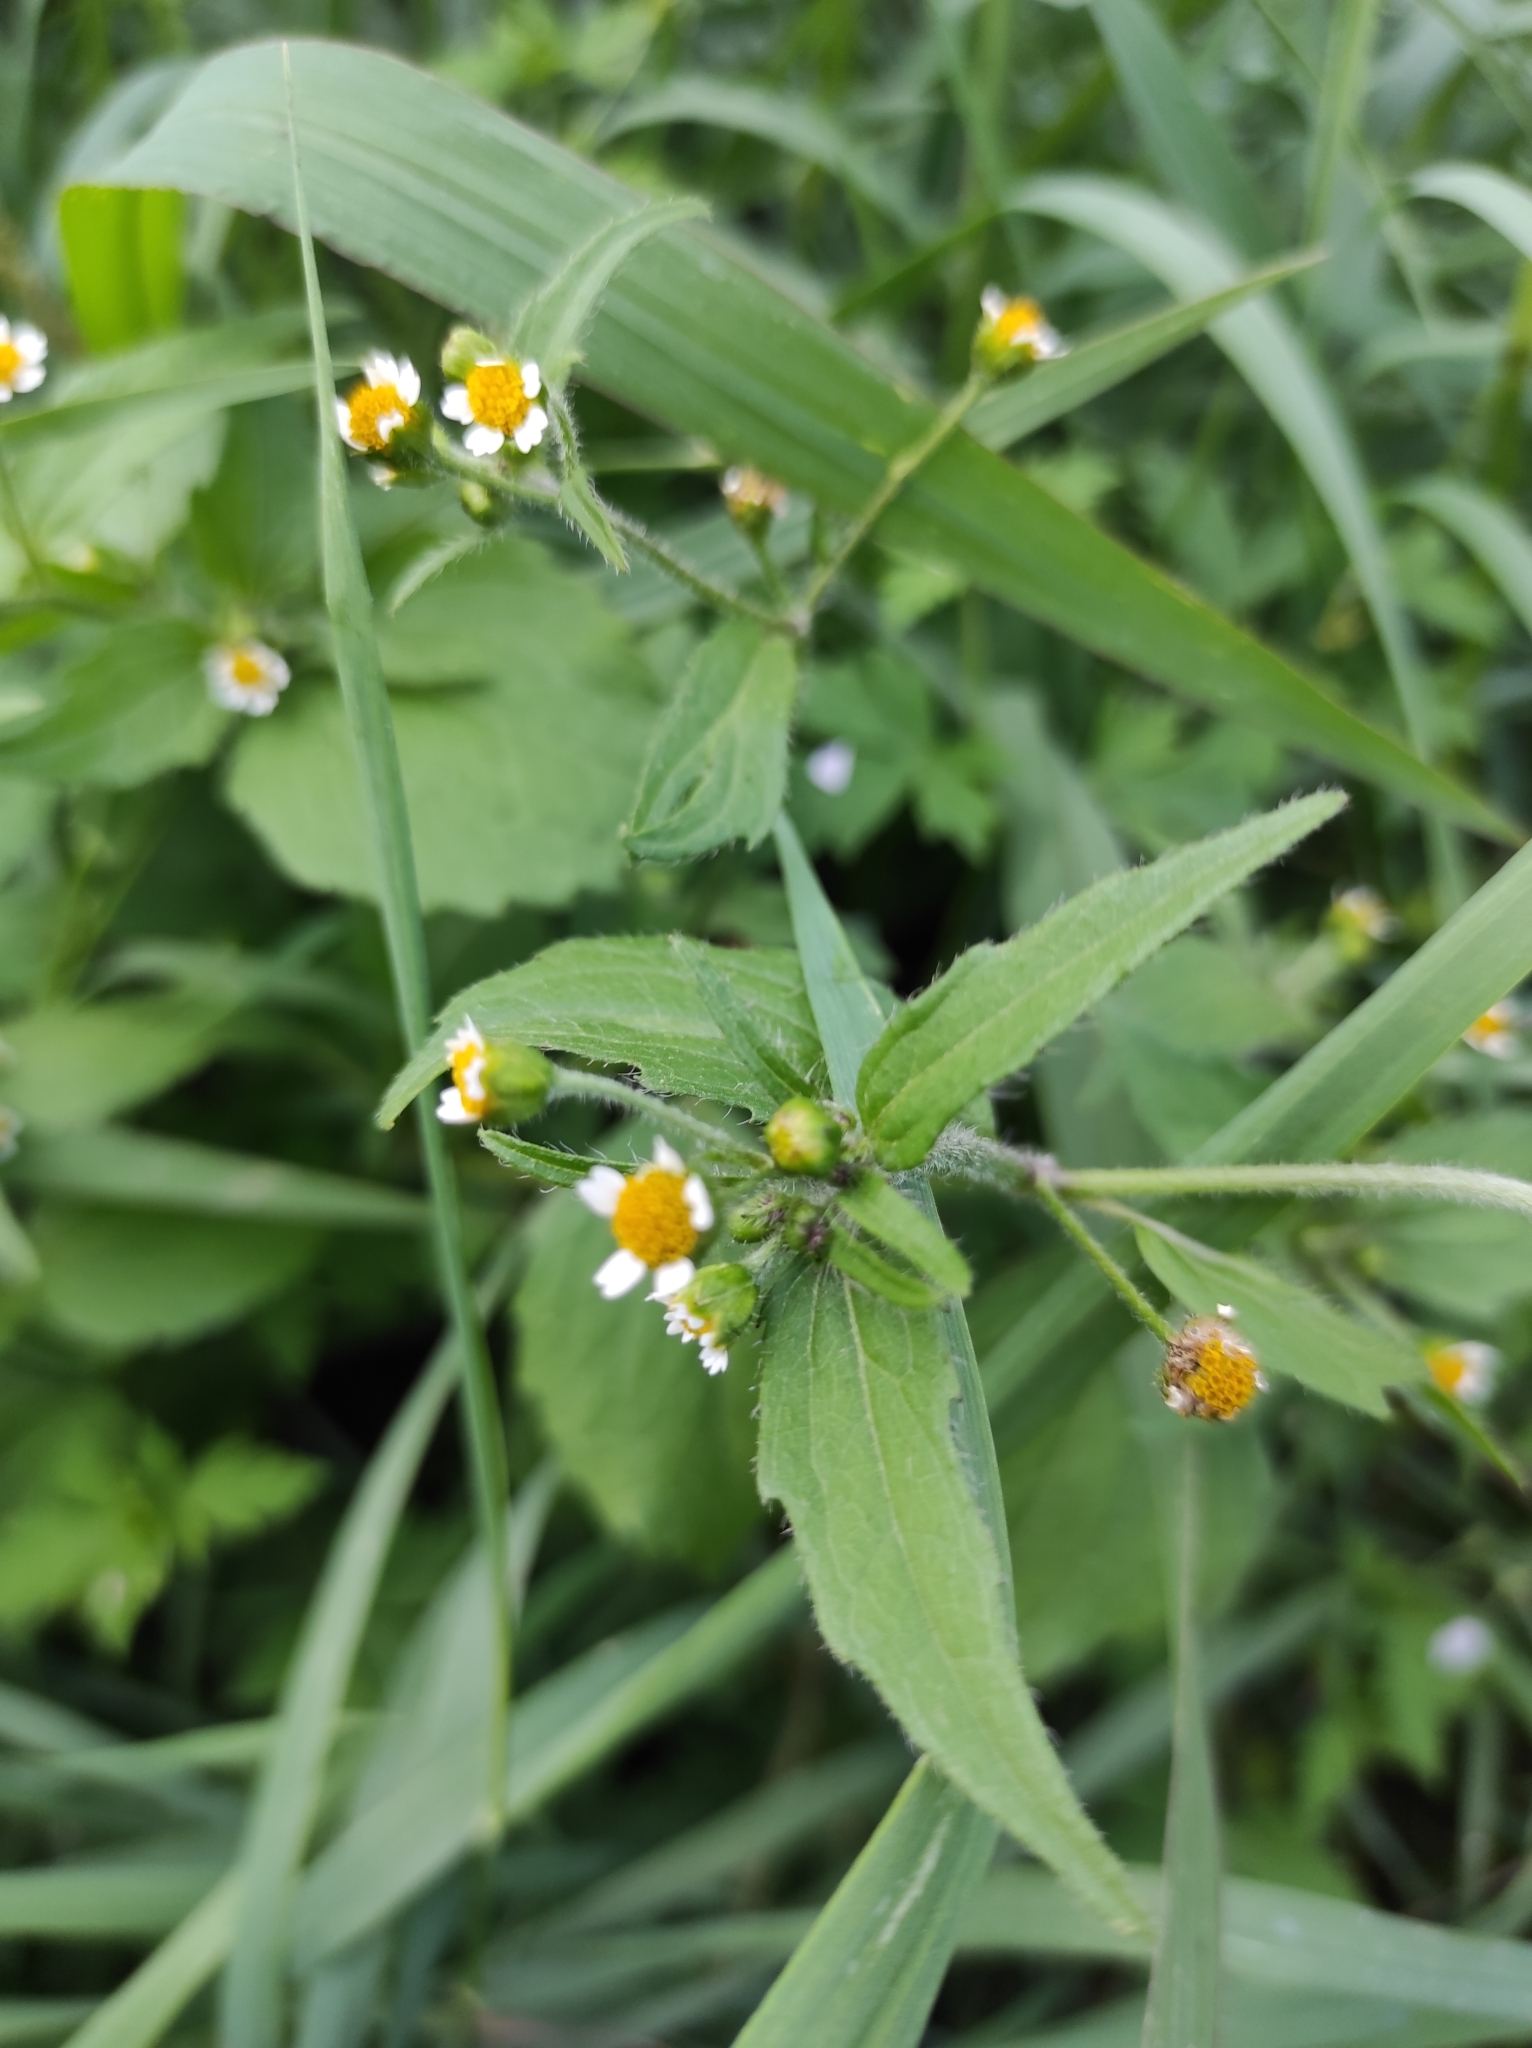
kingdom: Plantae
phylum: Tracheophyta
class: Magnoliopsida
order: Asterales
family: Asteraceae
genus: Galinsoga
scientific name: Galinsoga quadriradiata
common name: Shaggy soldier
